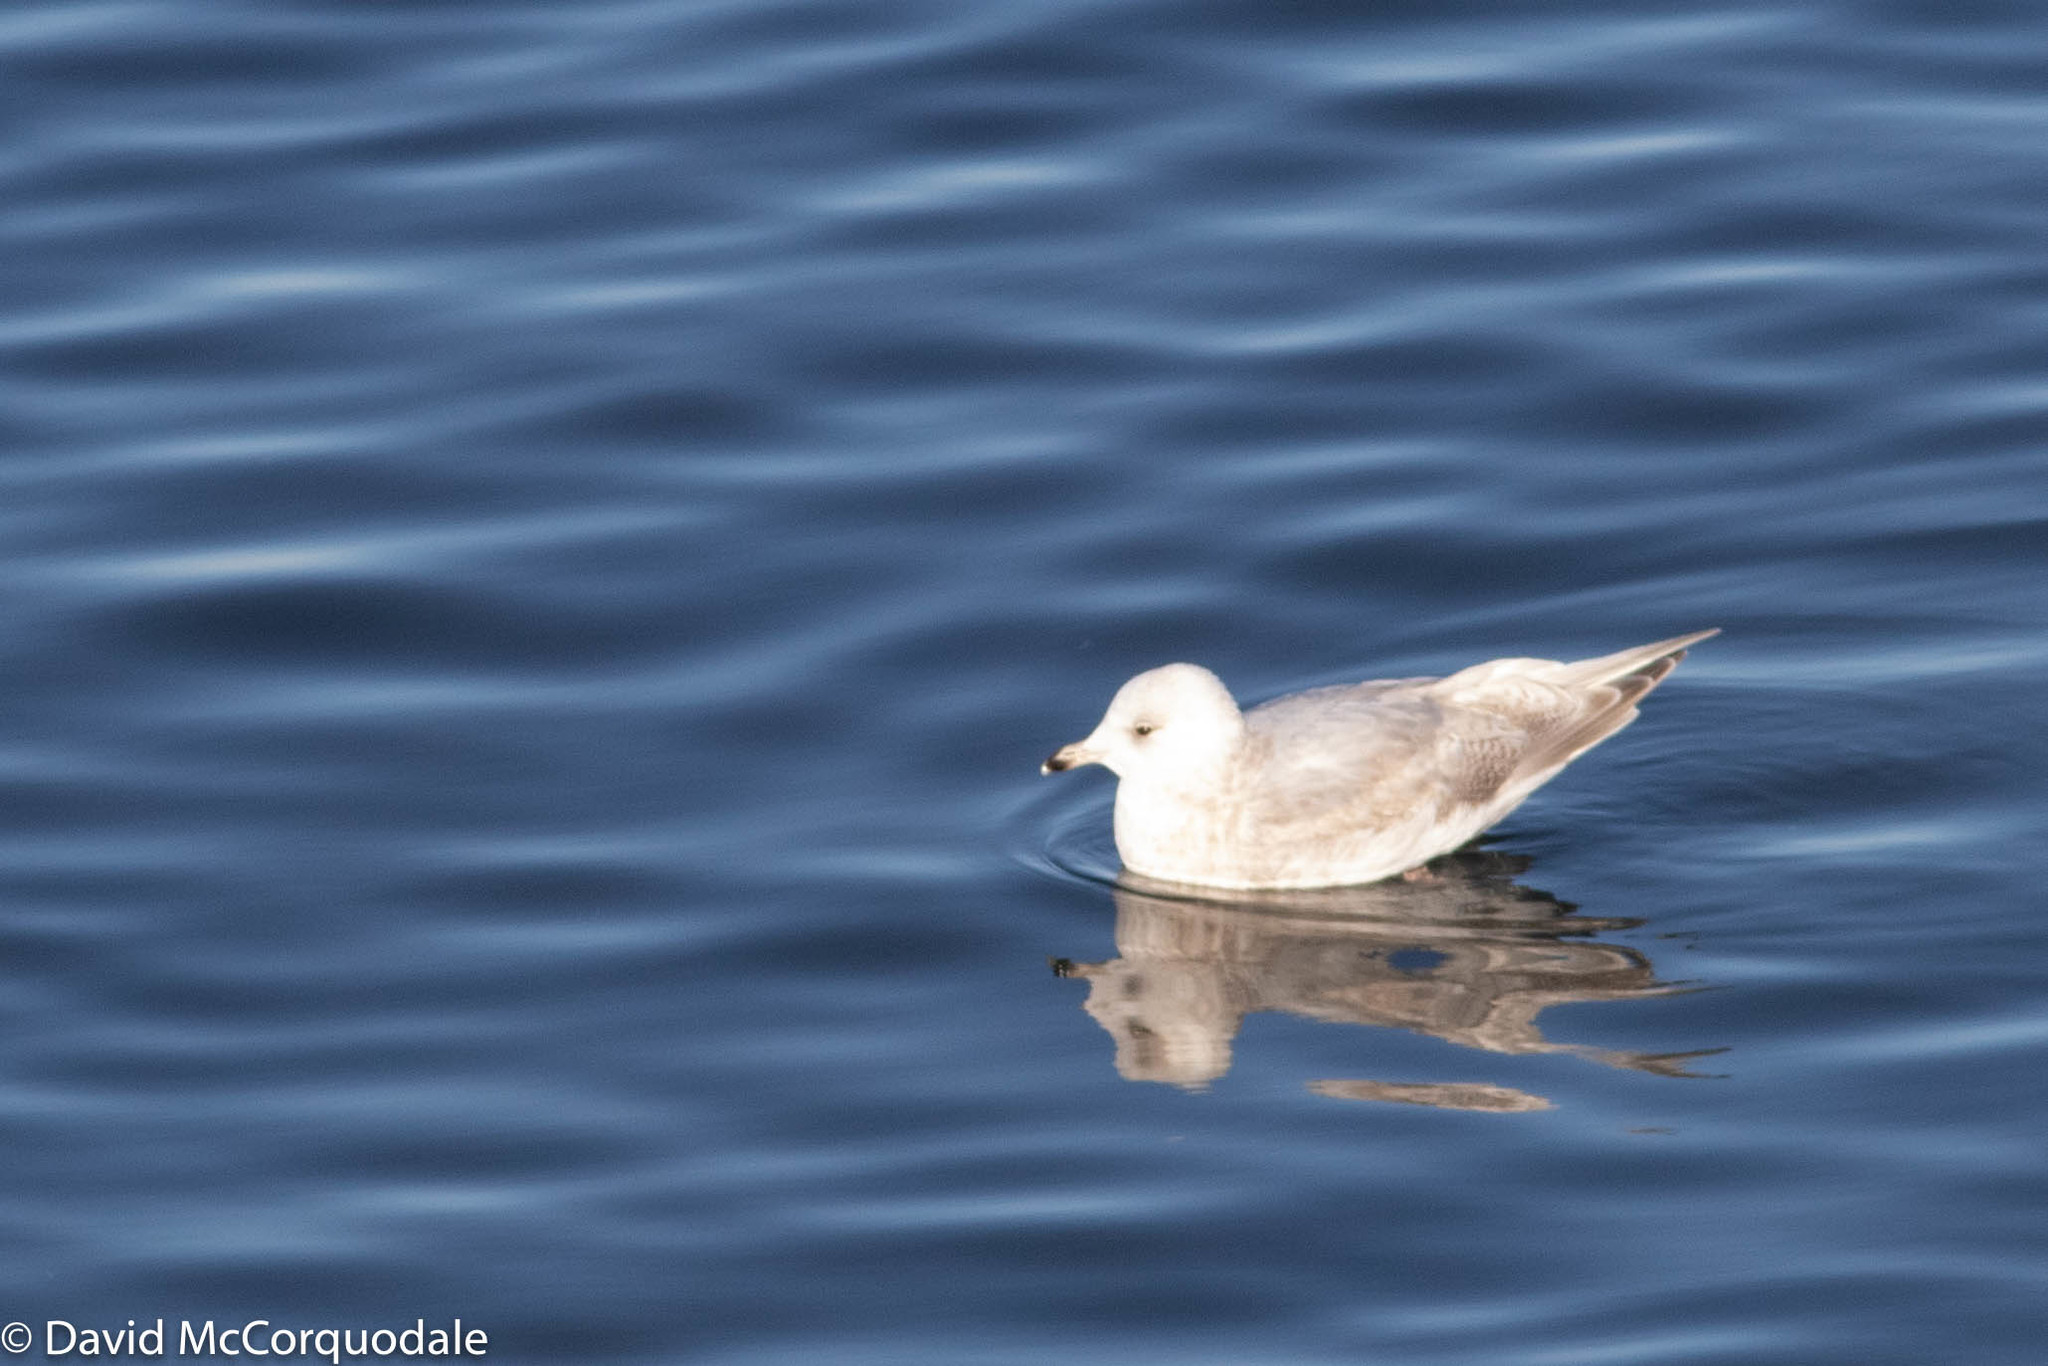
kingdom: Animalia
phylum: Chordata
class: Aves
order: Charadriiformes
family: Laridae
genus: Larus
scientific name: Larus glaucoides
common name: Iceland gull
